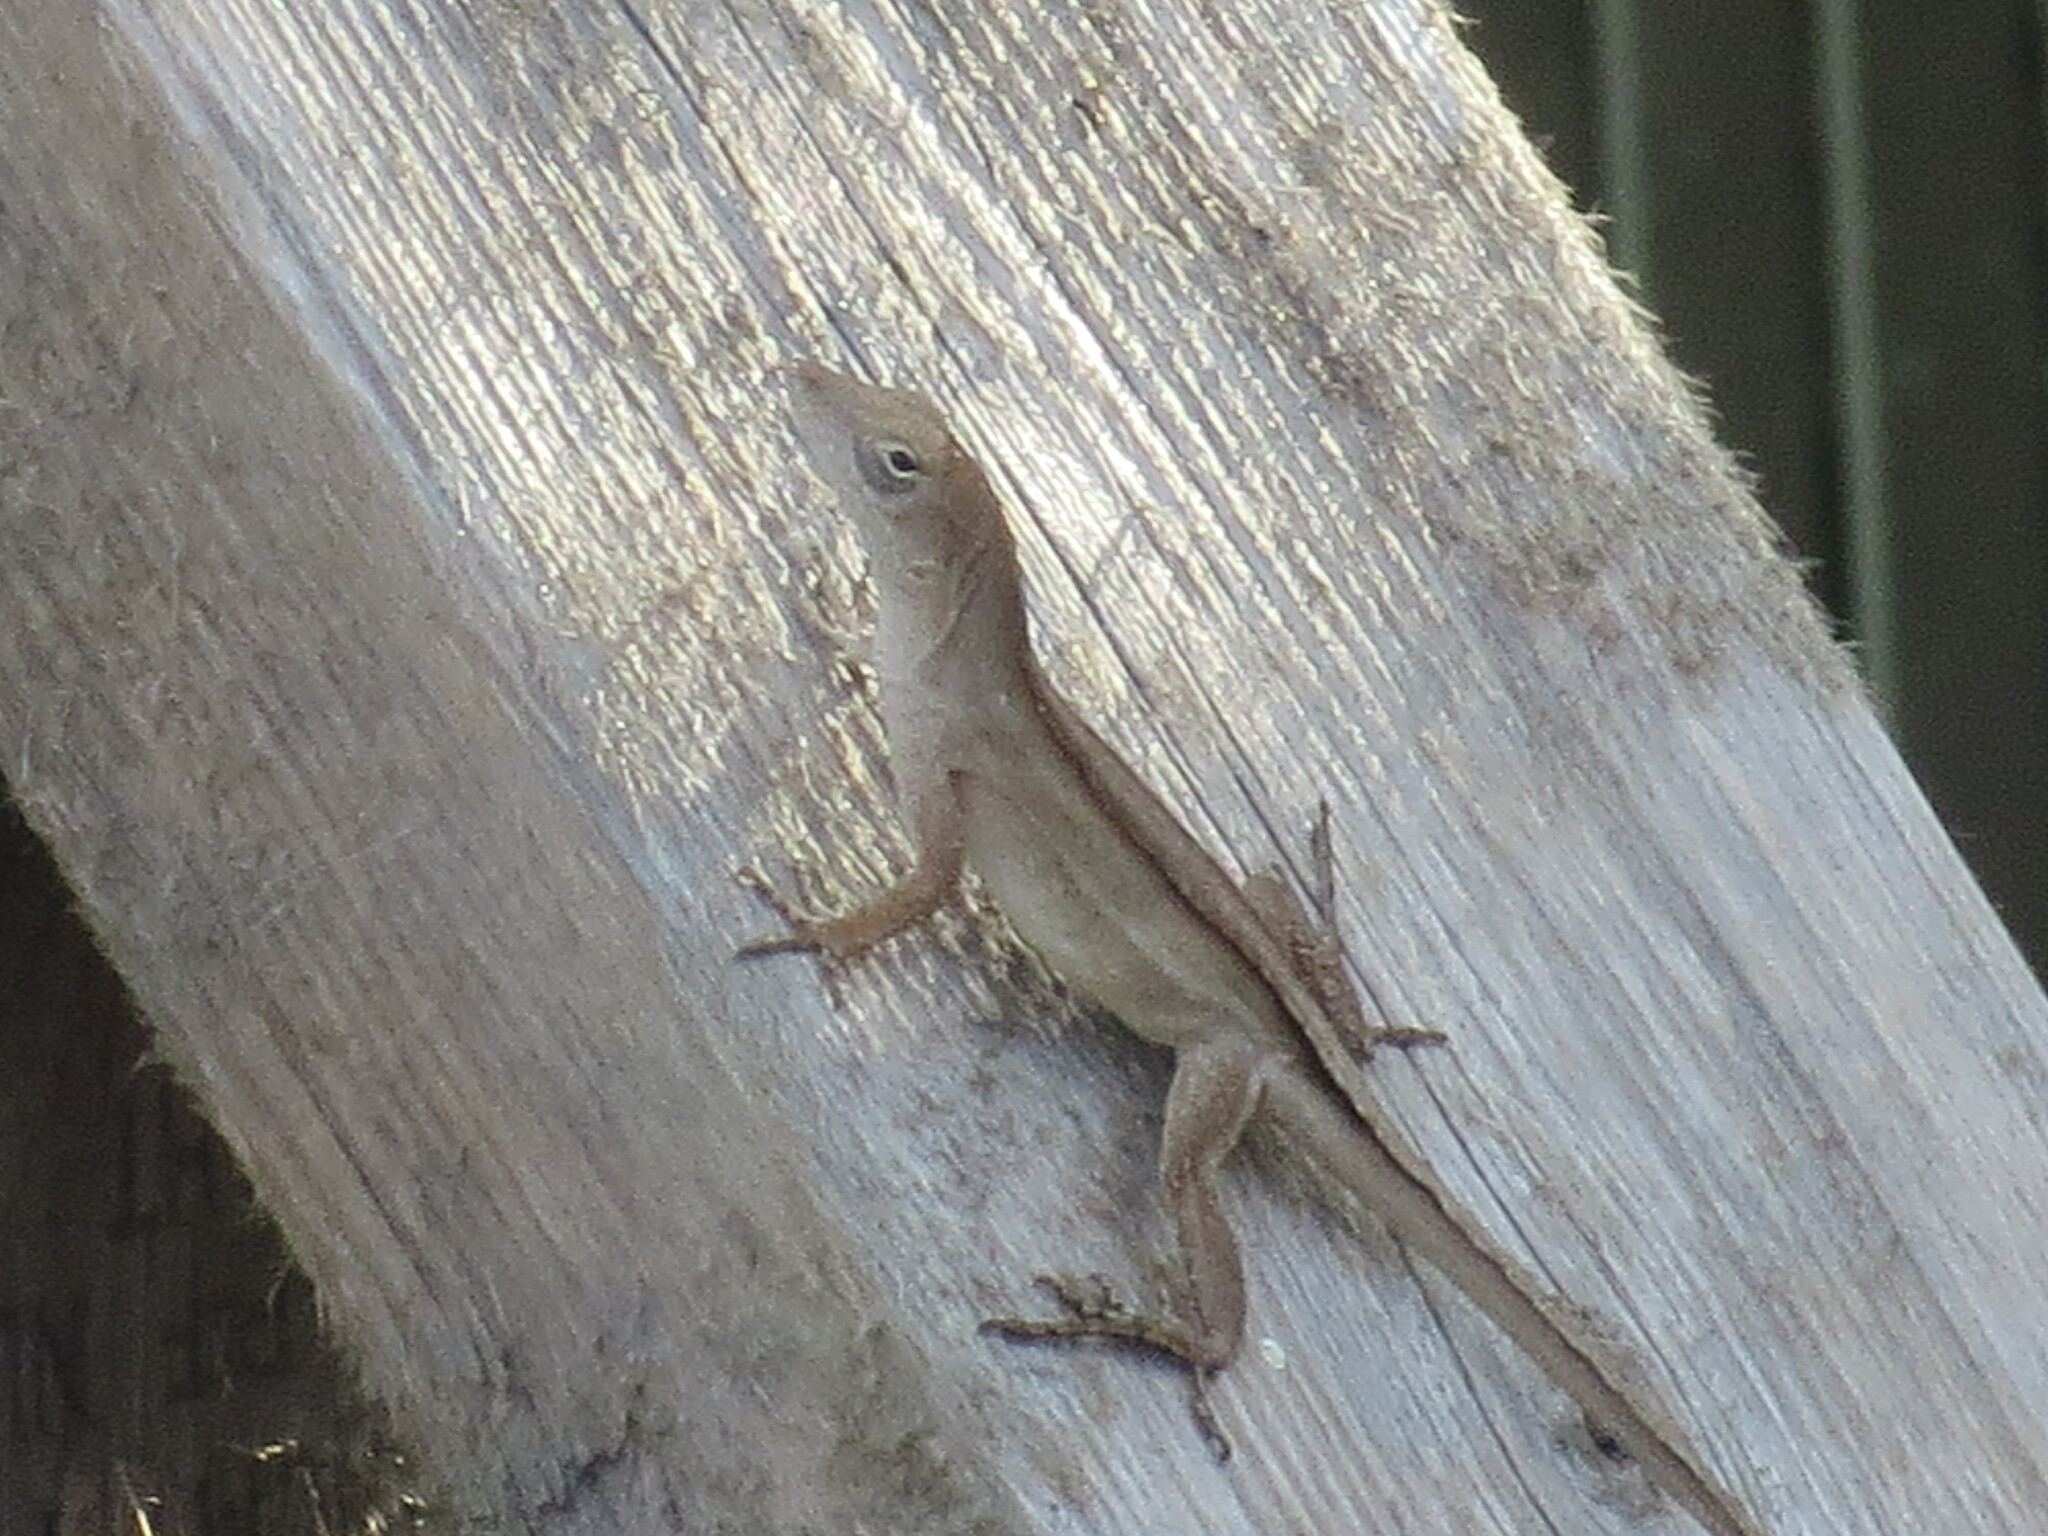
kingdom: Animalia
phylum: Chordata
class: Squamata
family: Dactyloidae
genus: Anolis
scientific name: Anolis sagrei
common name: Brown anole
